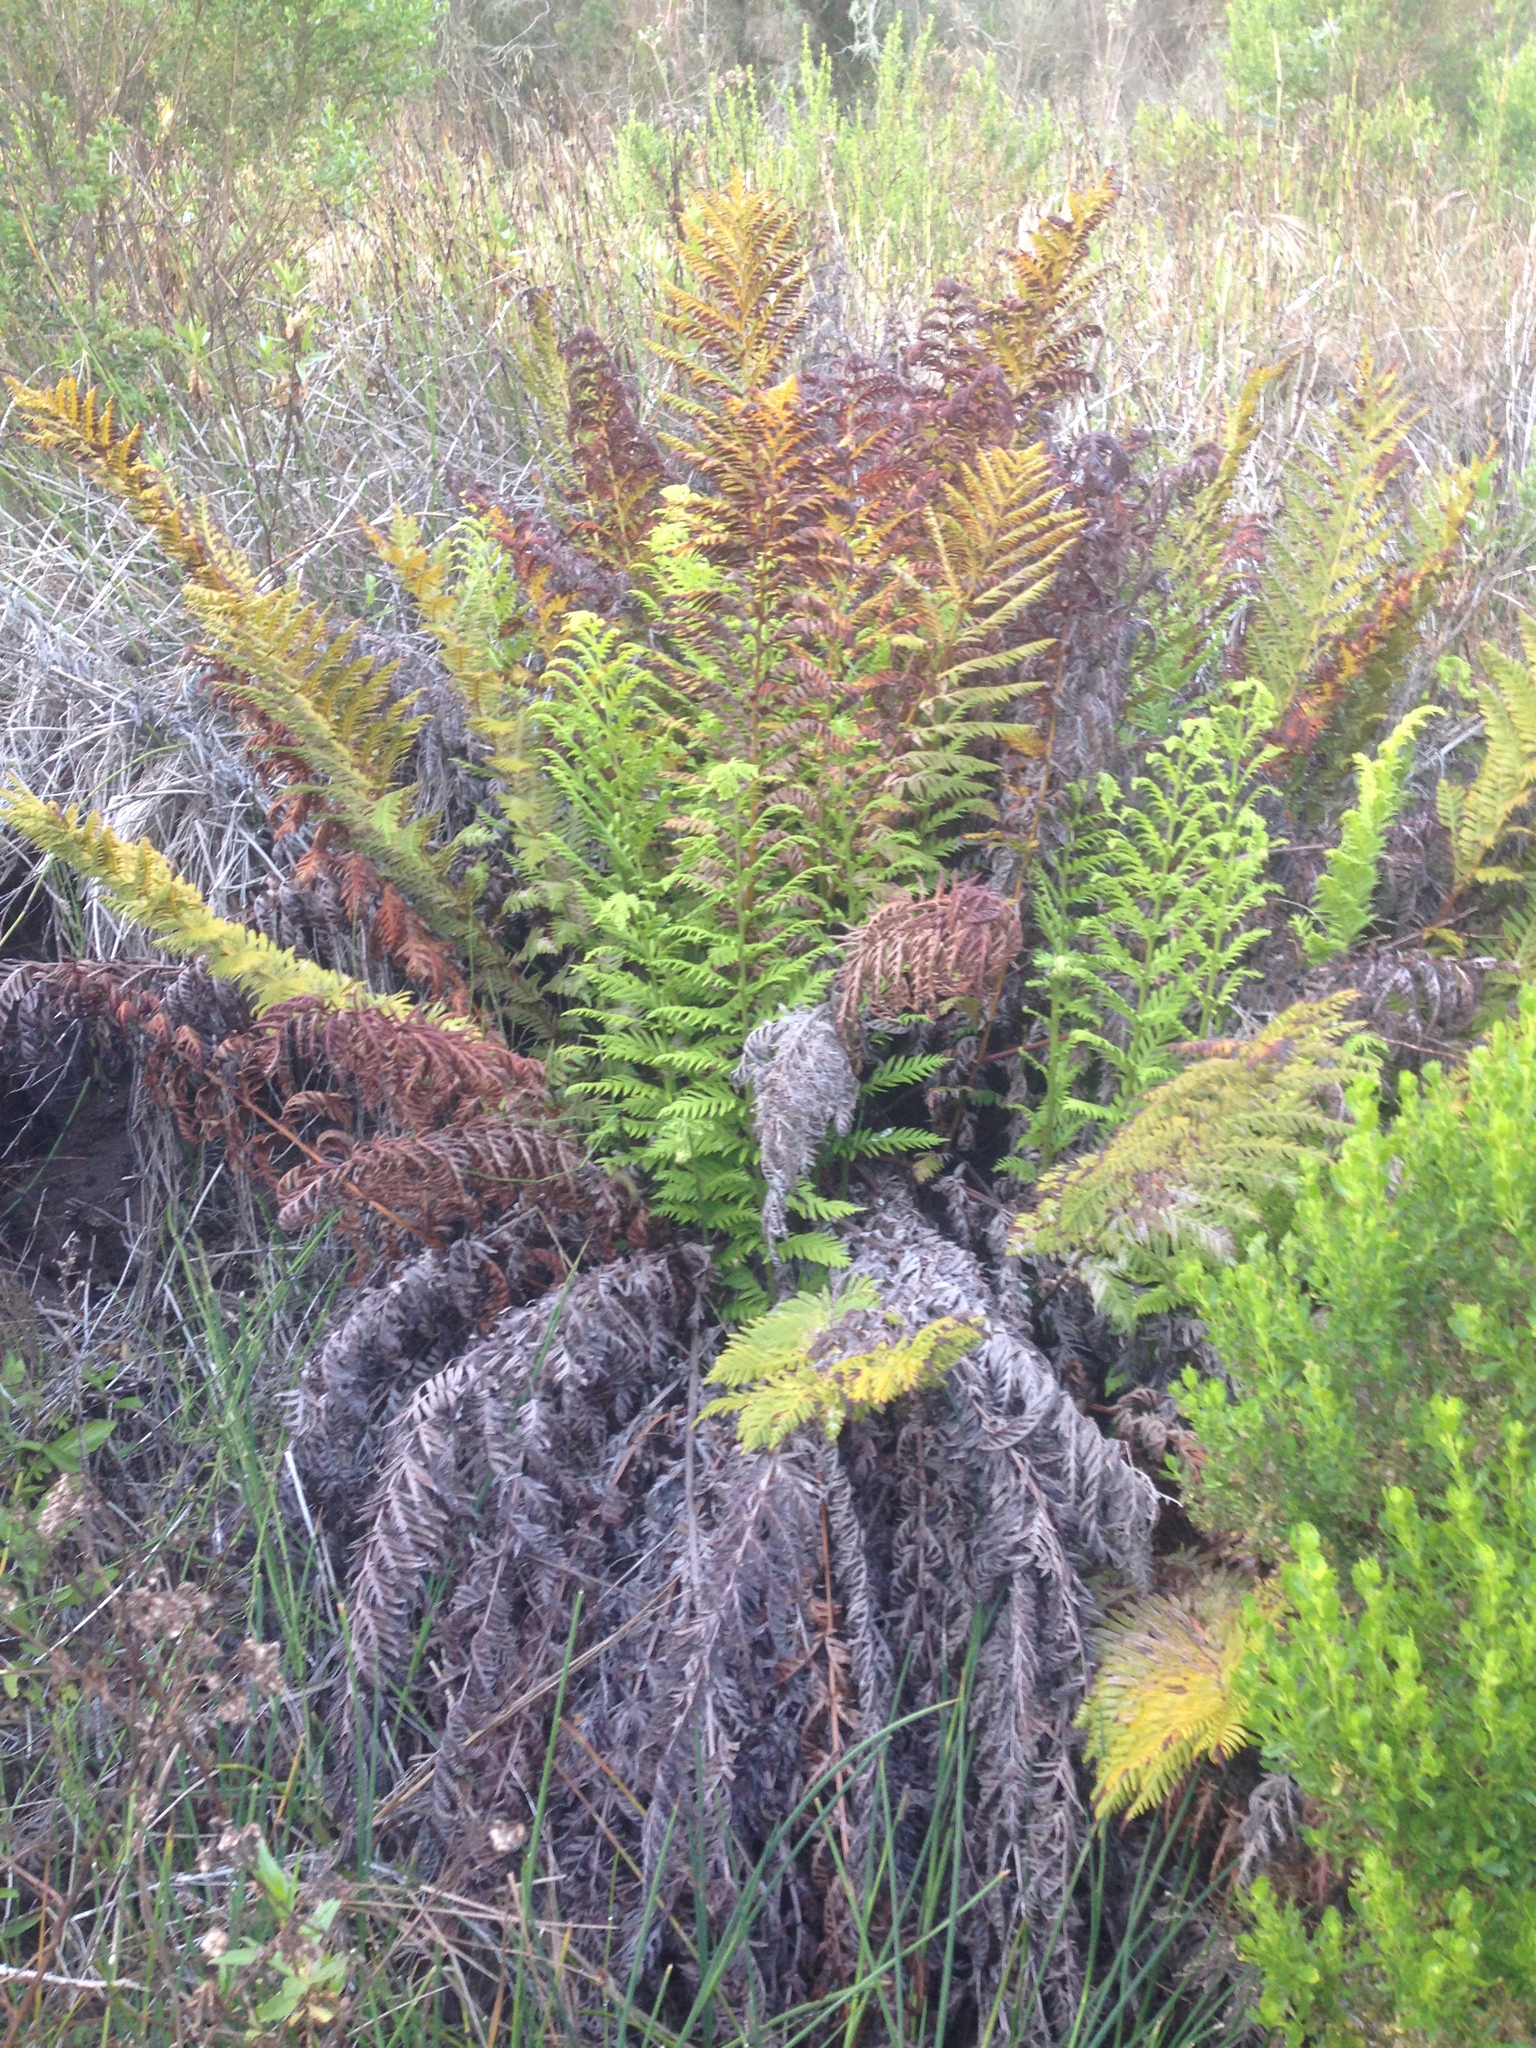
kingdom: Plantae
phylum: Tracheophyta
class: Polypodiopsida
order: Polypodiales
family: Blechnaceae
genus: Woodwardia
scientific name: Woodwardia fimbriata
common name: Giant chain fern
